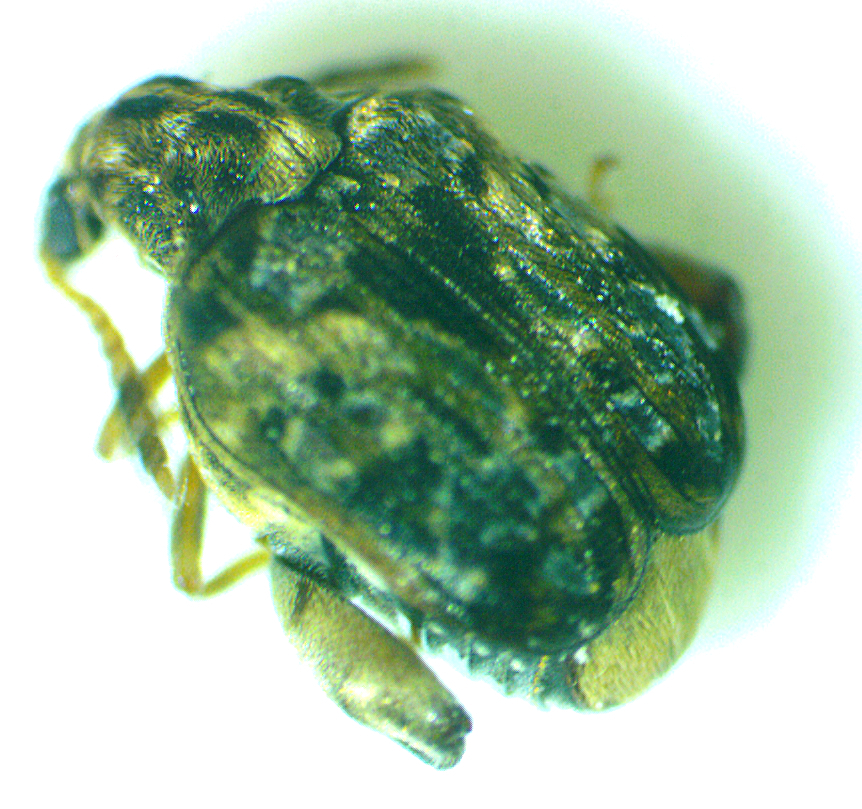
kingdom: Animalia
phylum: Arthropoda
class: Insecta
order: Coleoptera
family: Chrysomelidae
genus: Gibbobruchus
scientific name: Gibbobruchus mimus
